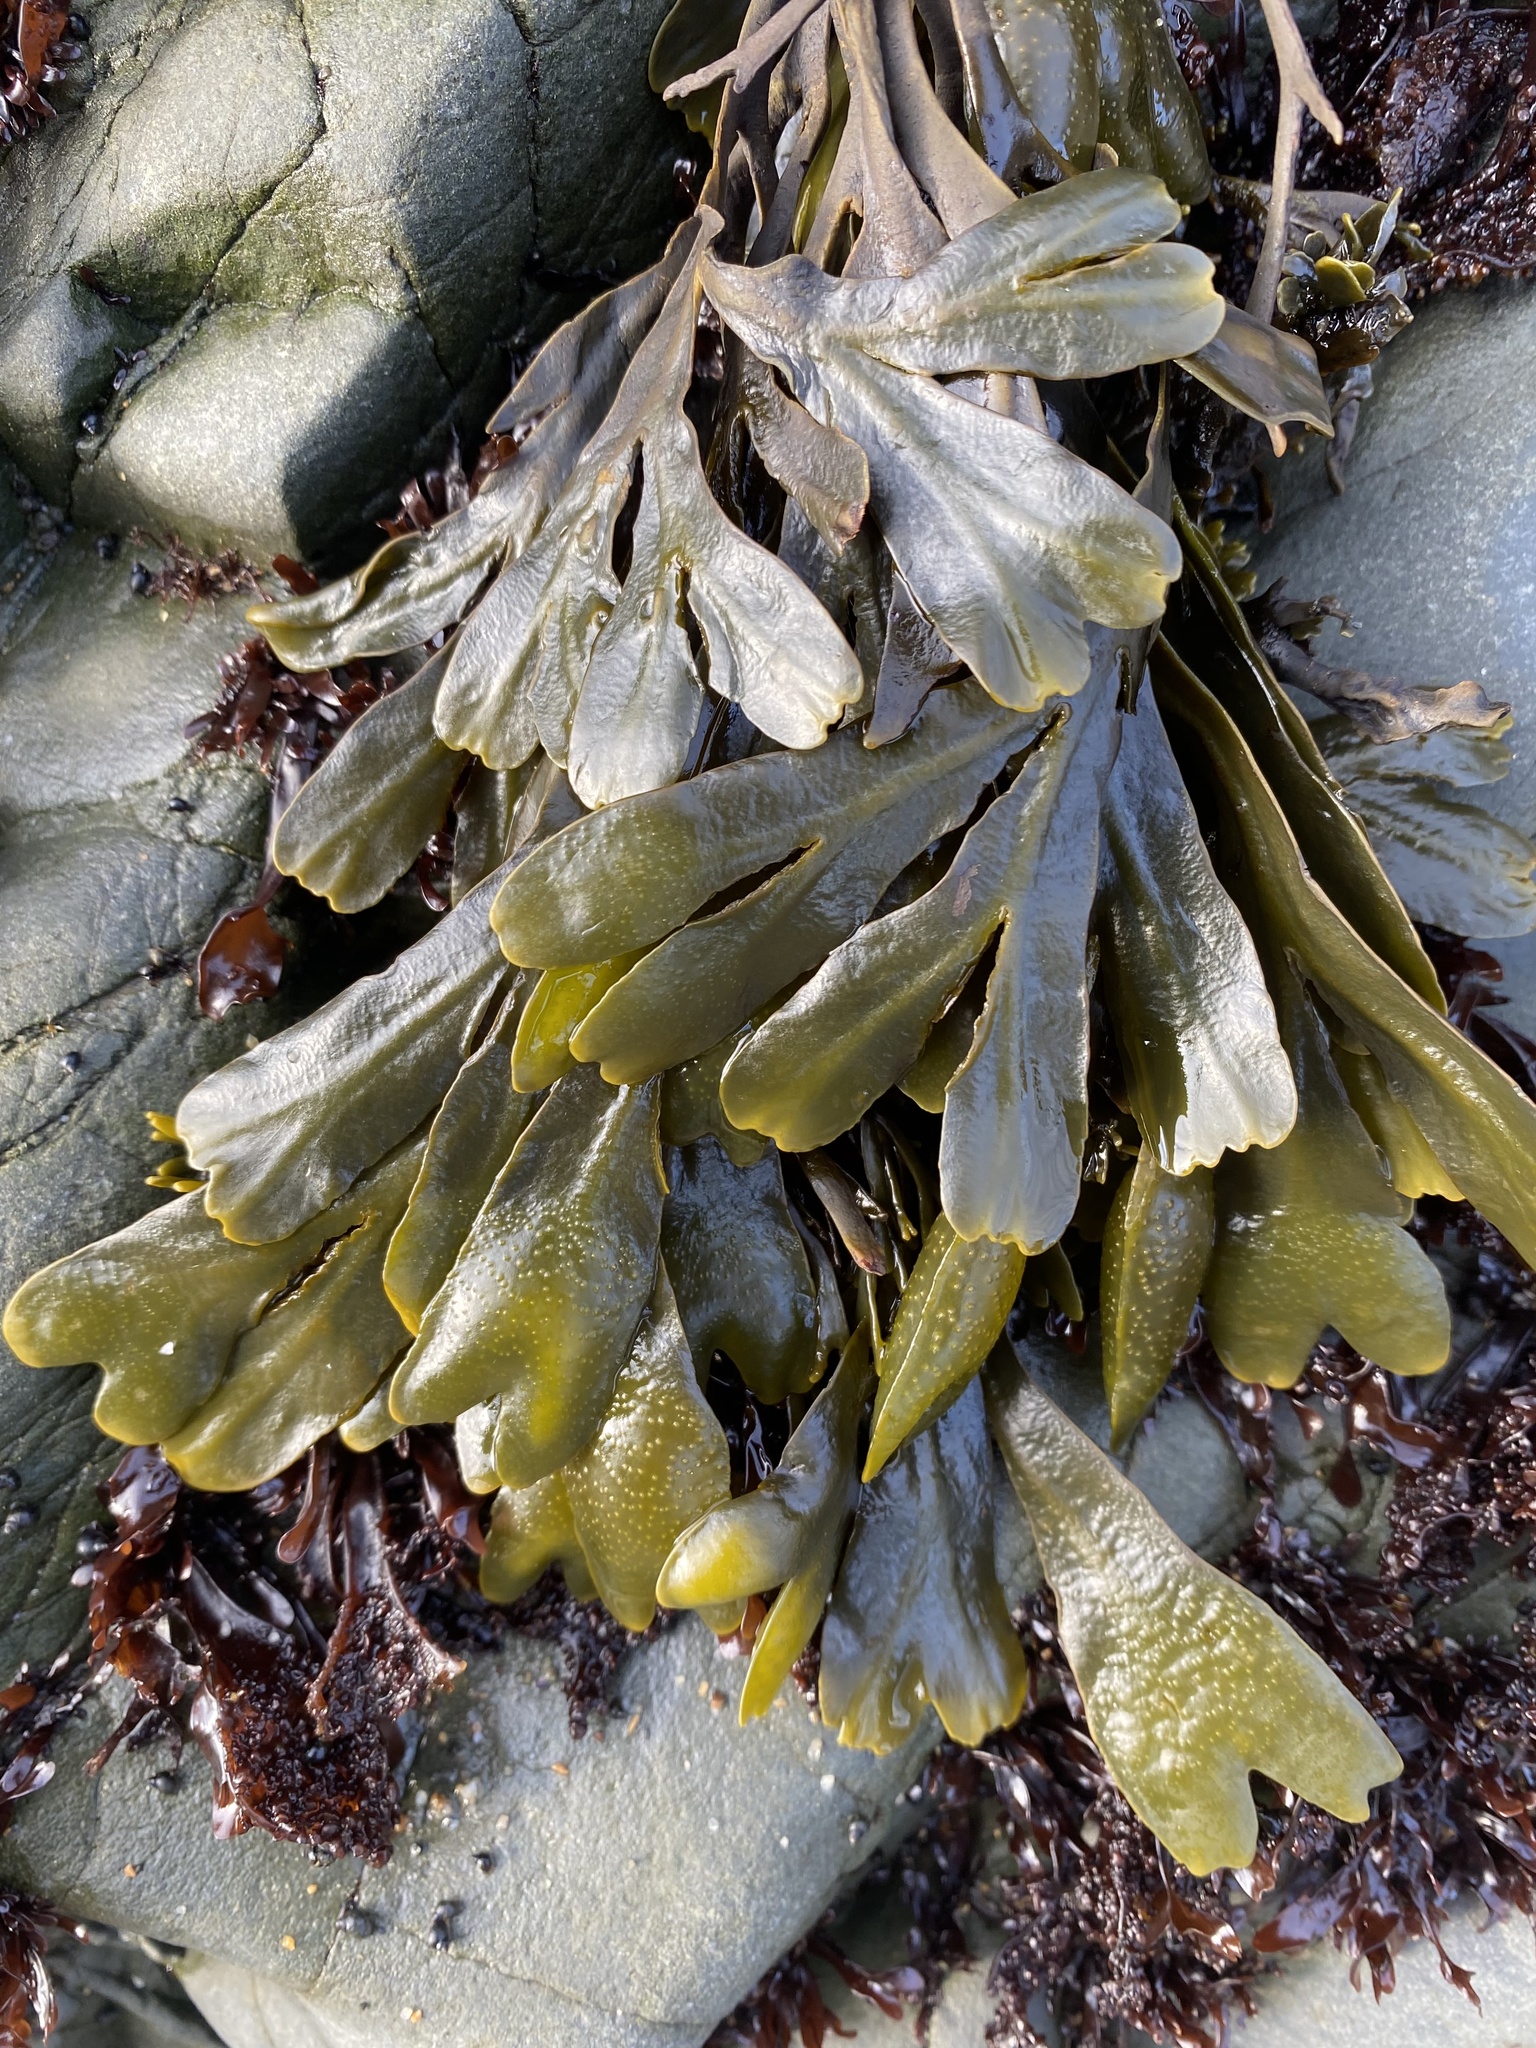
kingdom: Chromista
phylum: Ochrophyta
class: Phaeophyceae
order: Fucales
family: Fucaceae
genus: Fucus
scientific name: Fucus distichus
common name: Rockweed
